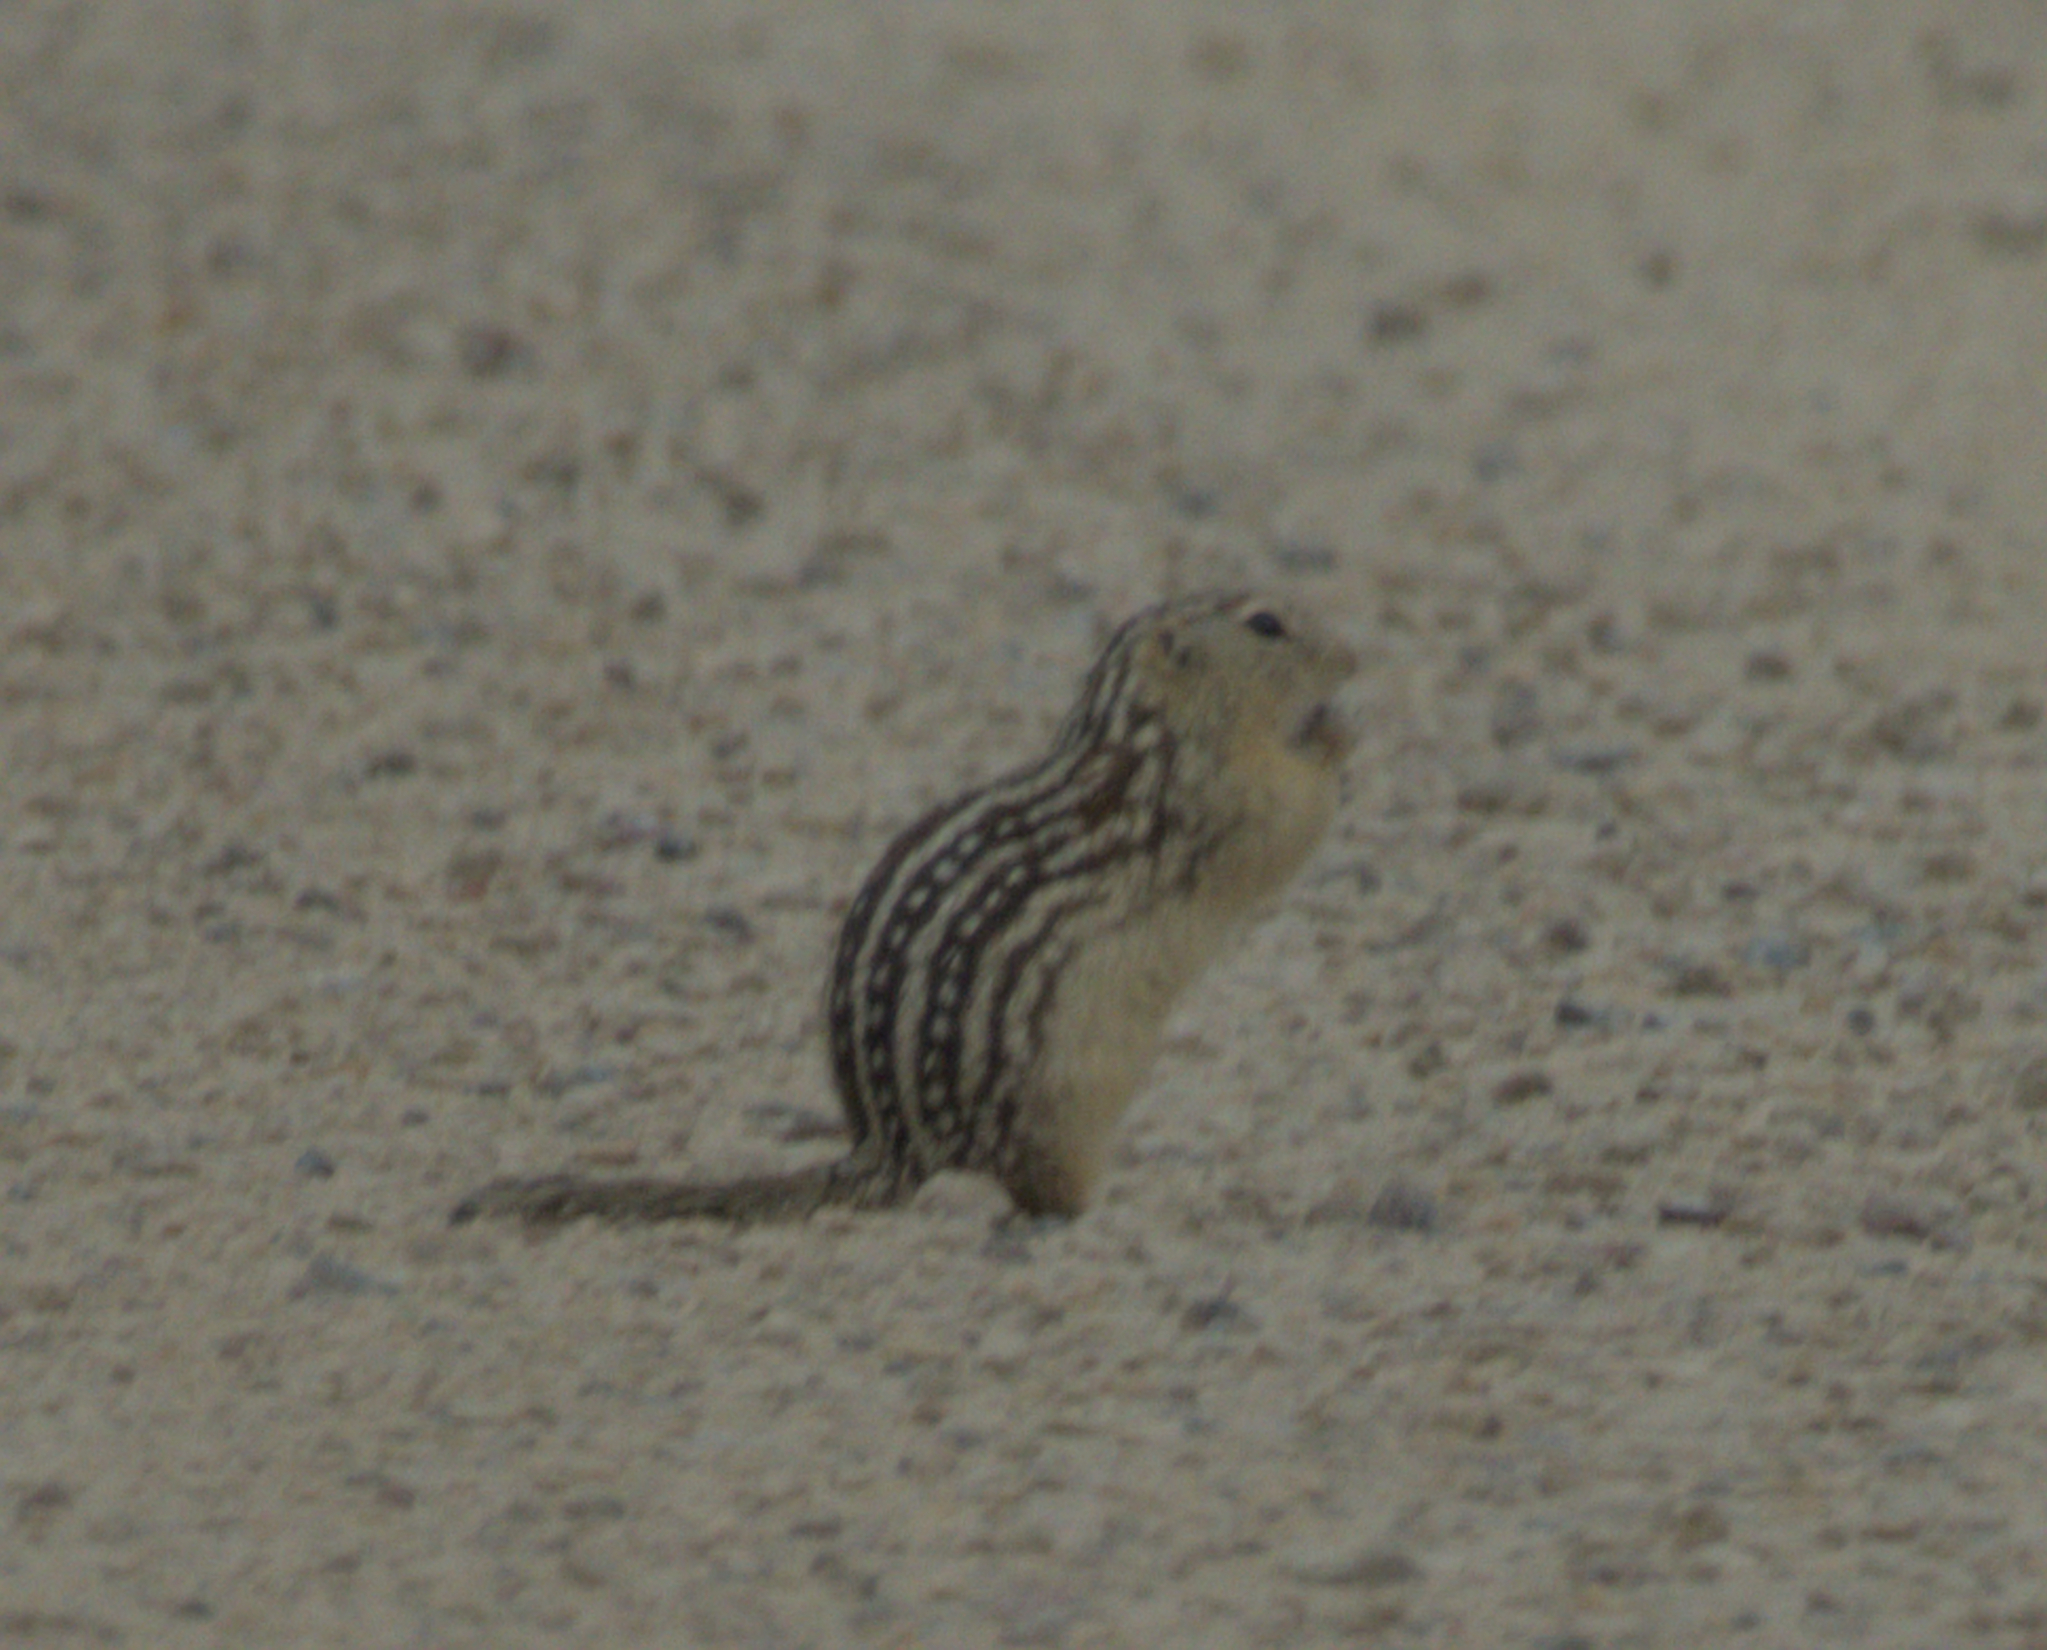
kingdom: Animalia
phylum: Chordata
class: Mammalia
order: Rodentia
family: Sciuridae
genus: Ictidomys
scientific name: Ictidomys tridecemlineatus
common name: Thirteen-lined ground squirrel
